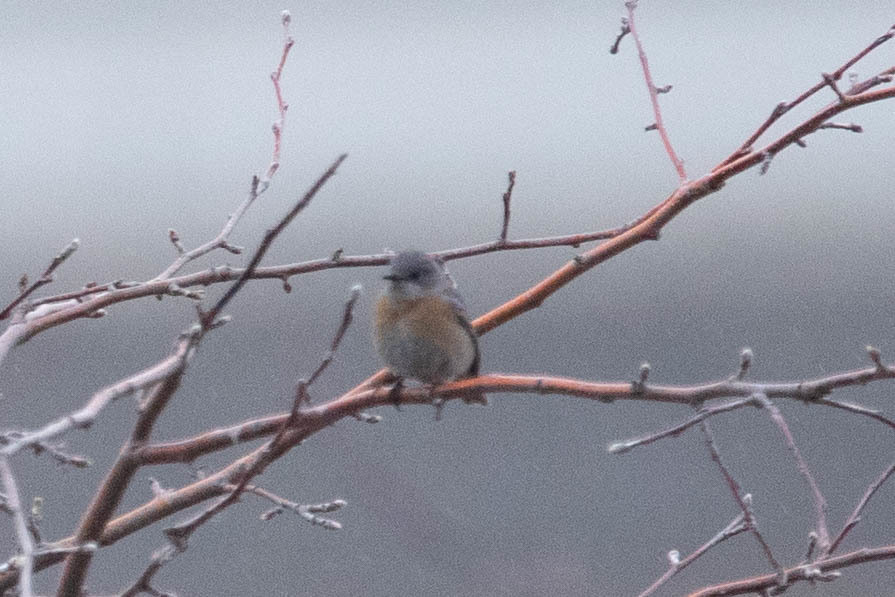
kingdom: Animalia
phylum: Chordata
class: Aves
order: Passeriformes
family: Turdidae
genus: Sialia
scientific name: Sialia mexicana
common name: Western bluebird
